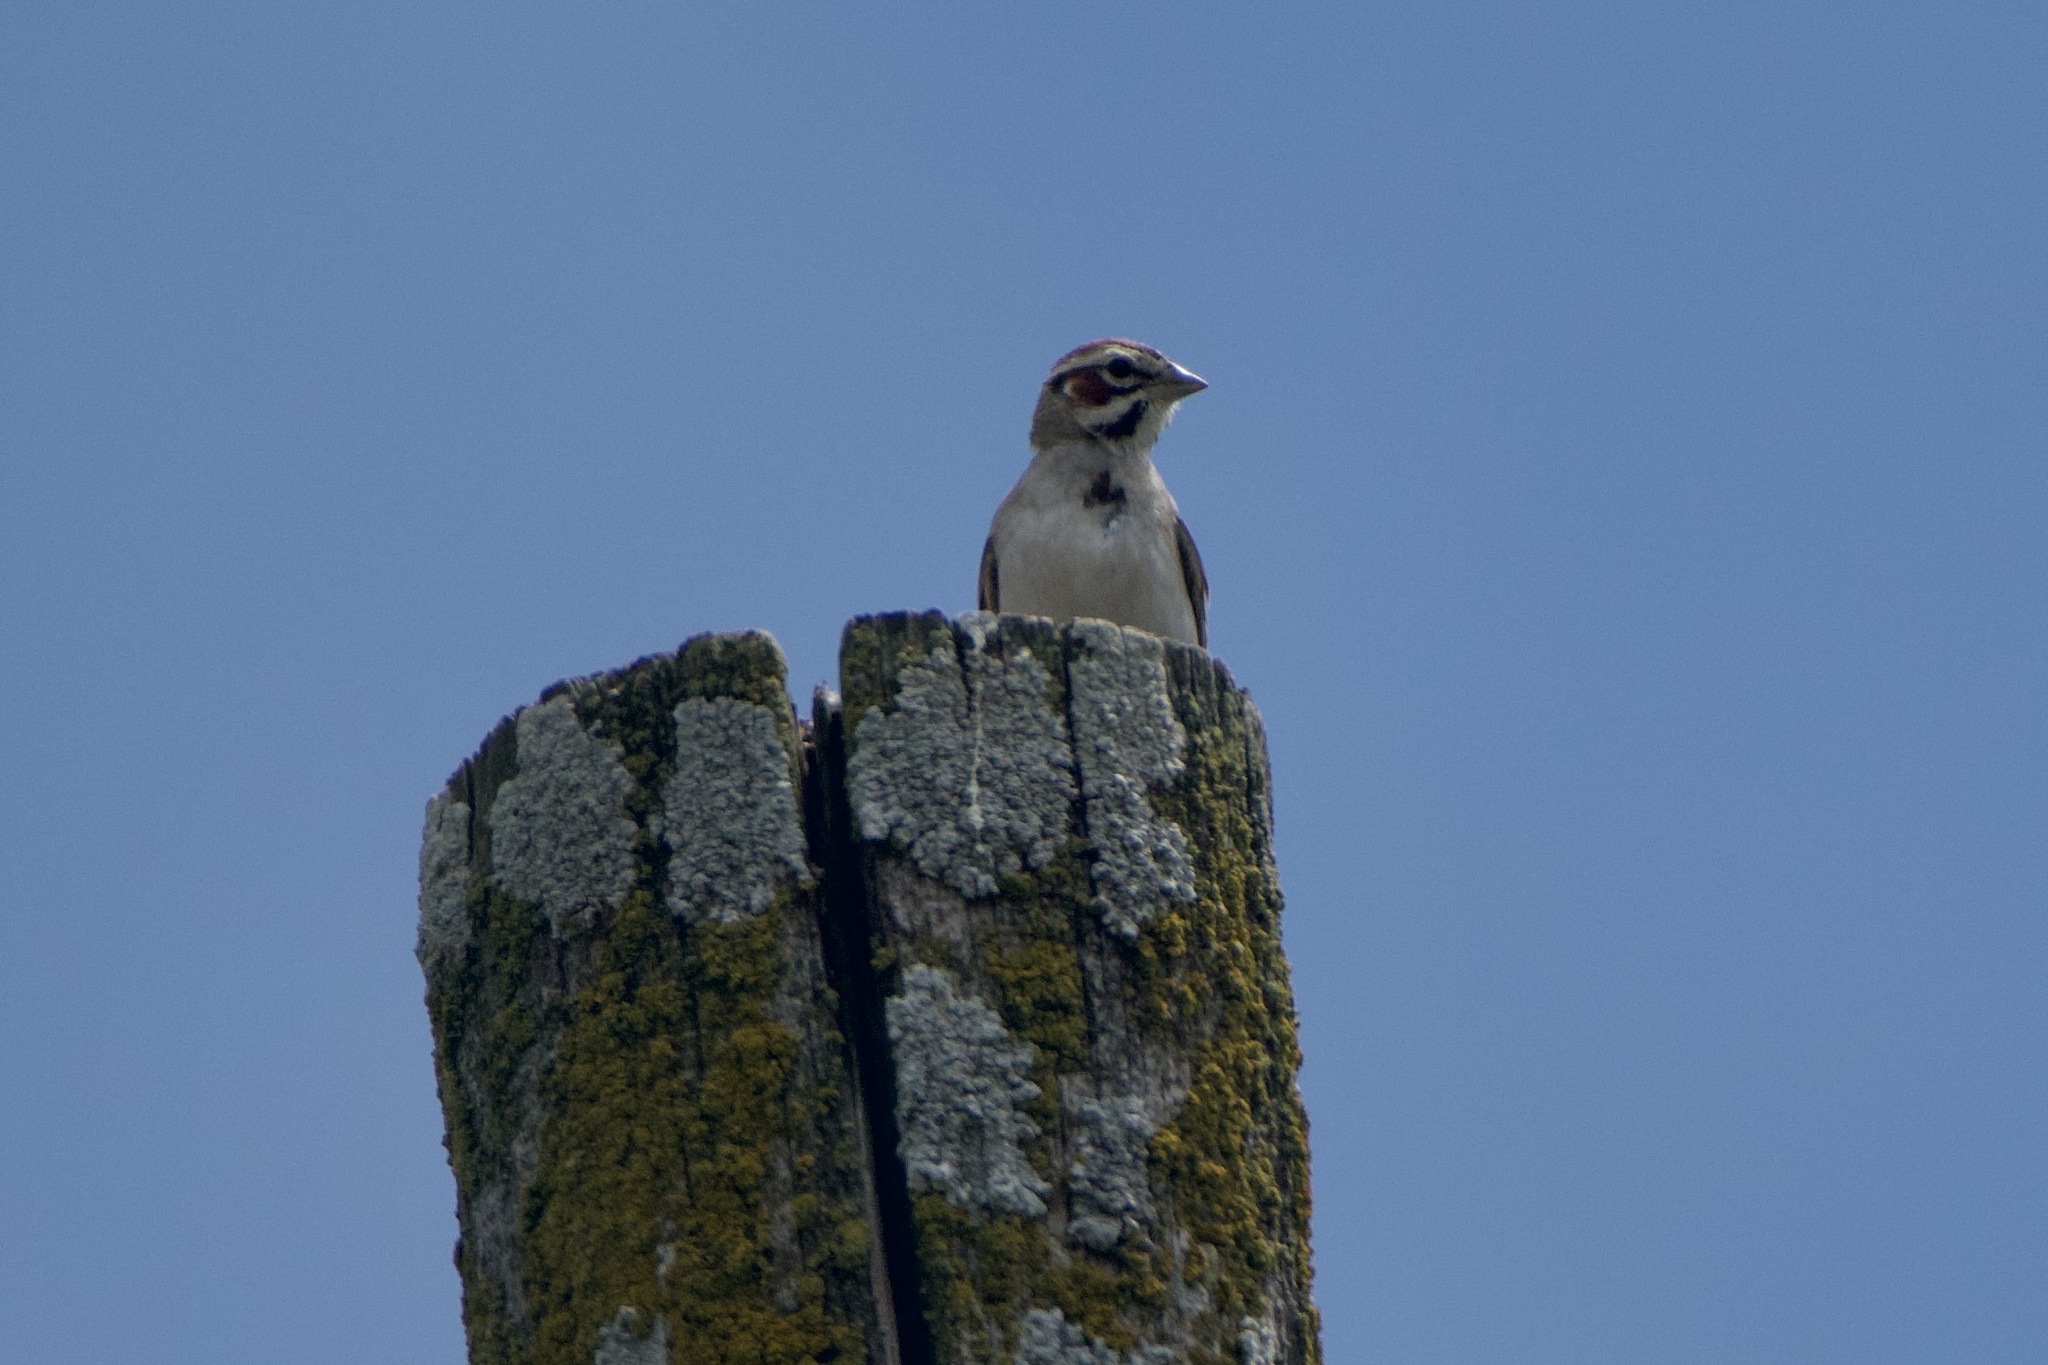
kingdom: Animalia
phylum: Chordata
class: Aves
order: Passeriformes
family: Passerellidae
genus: Chondestes
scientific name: Chondestes grammacus
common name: Lark sparrow
